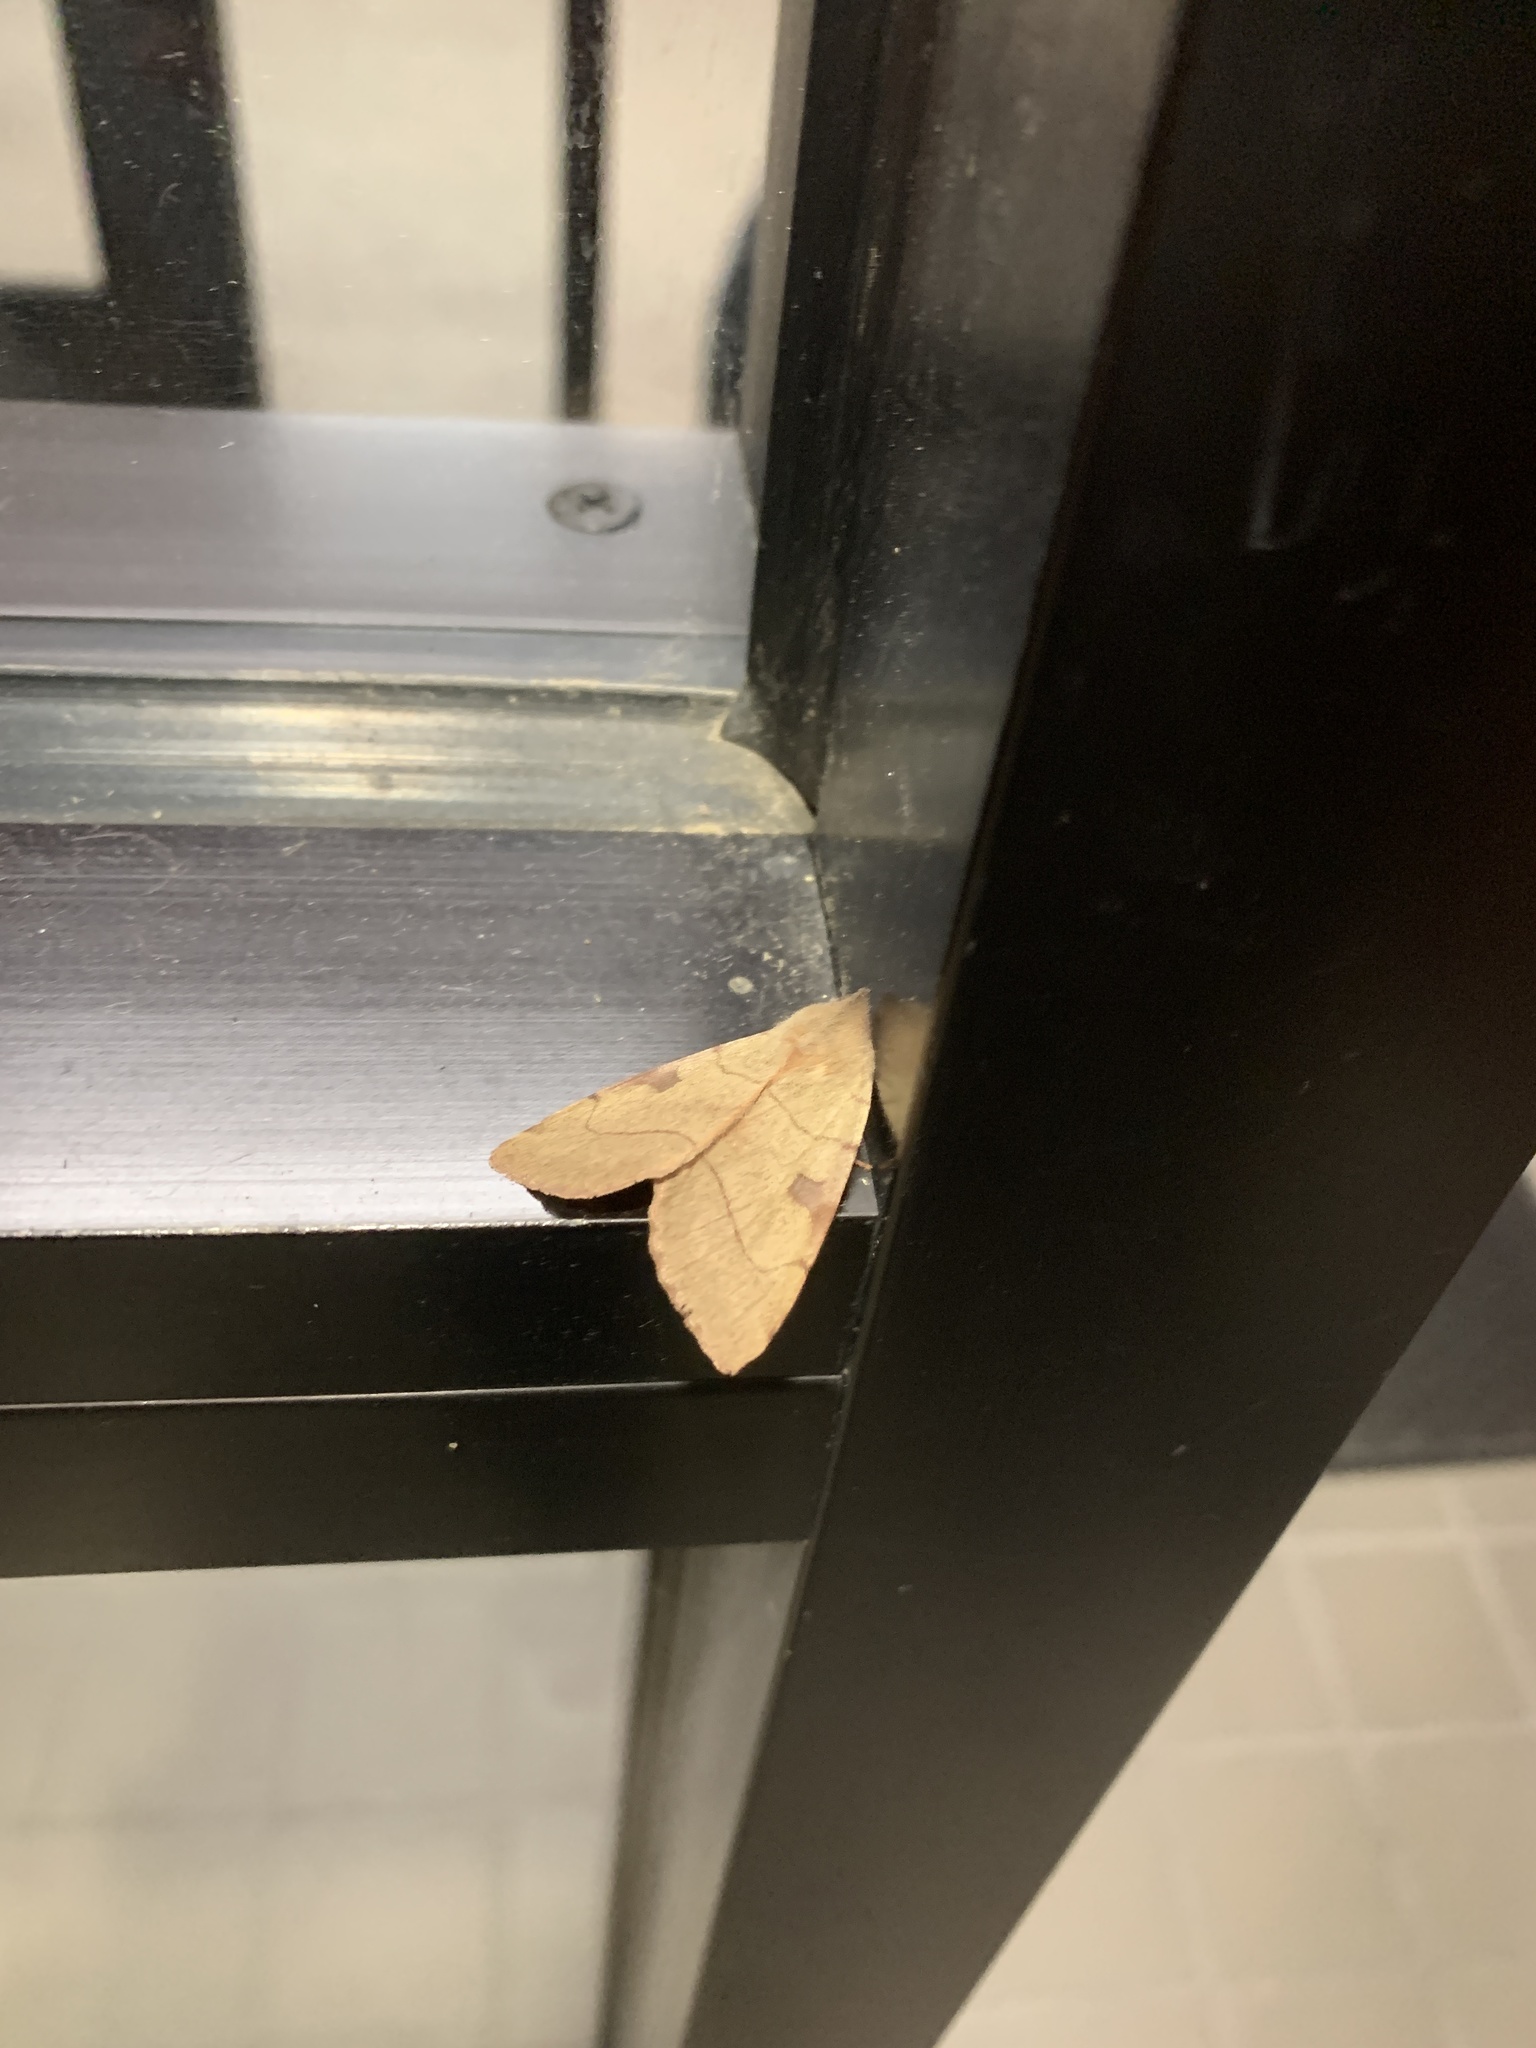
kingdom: Animalia
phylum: Arthropoda
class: Insecta
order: Lepidoptera
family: Noctuidae
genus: Choephora
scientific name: Choephora fungorum
